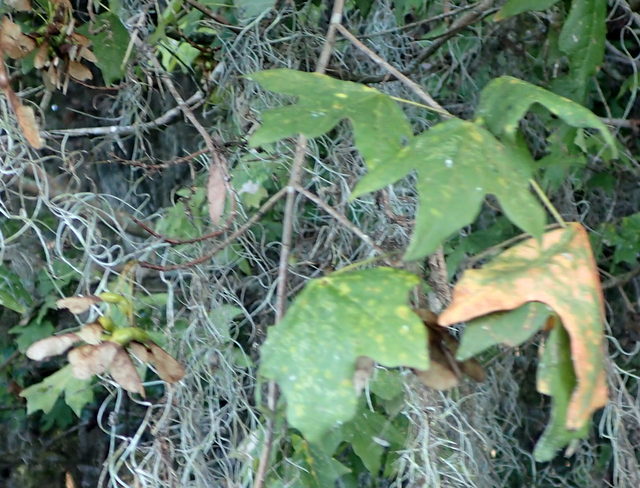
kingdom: Plantae
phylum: Tracheophyta
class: Magnoliopsida
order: Sapindales
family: Sapindaceae
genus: Acer
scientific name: Acer floridanum
